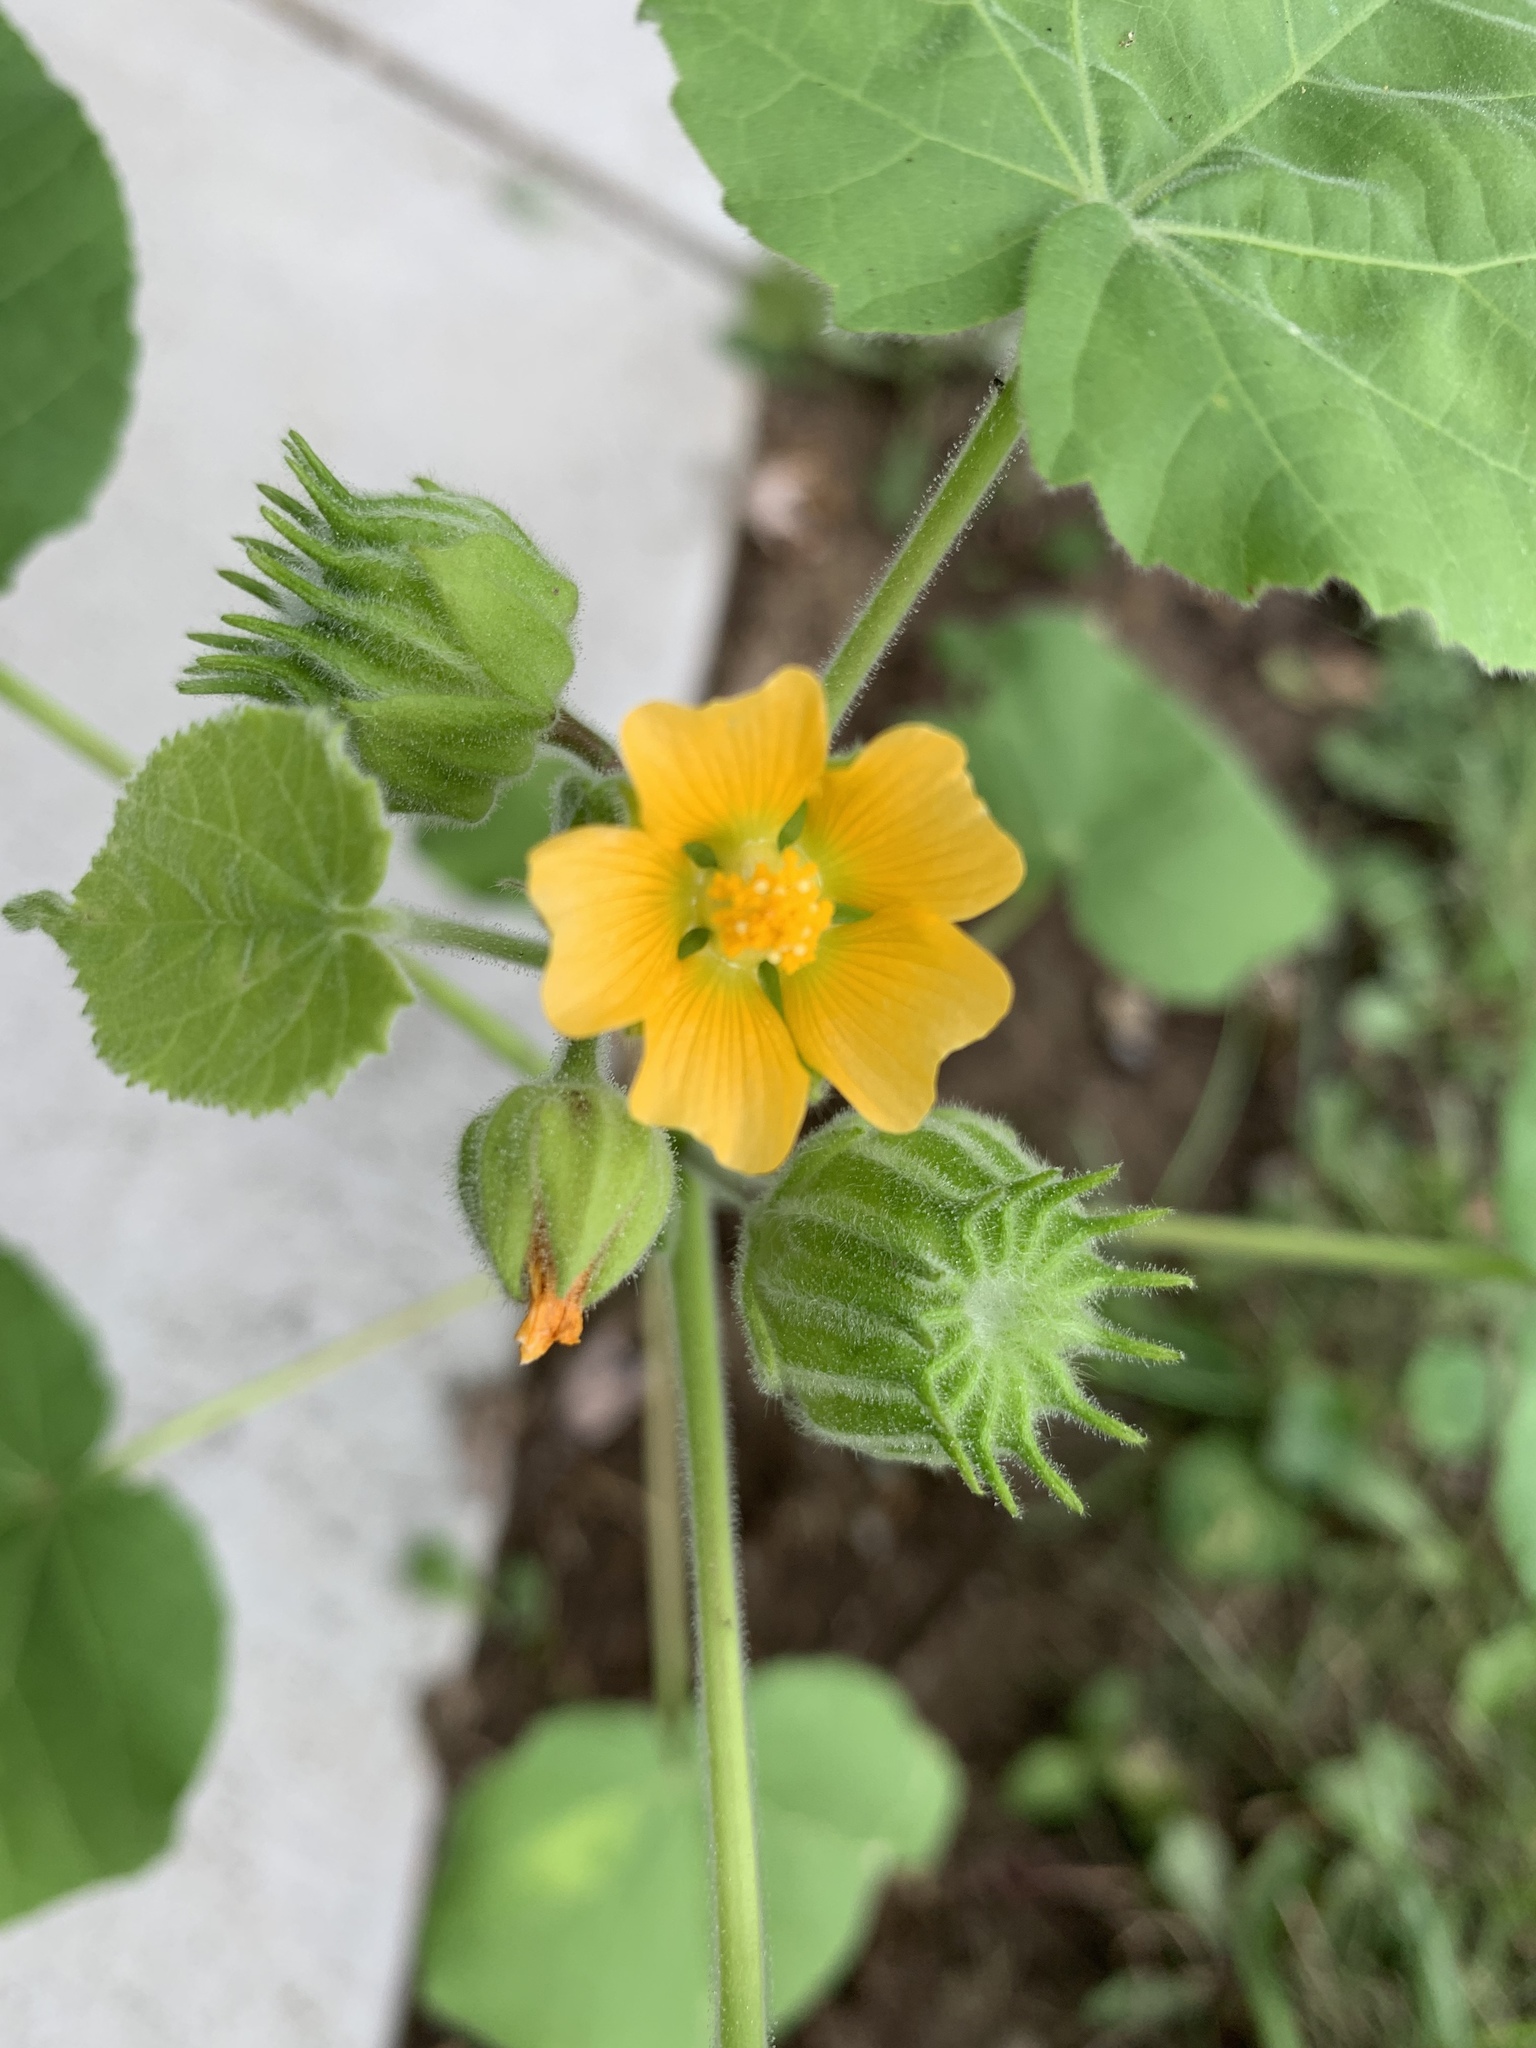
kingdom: Plantae
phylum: Tracheophyta
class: Magnoliopsida
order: Malvales
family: Malvaceae
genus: Abutilon
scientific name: Abutilon theophrasti
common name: Velvetleaf
